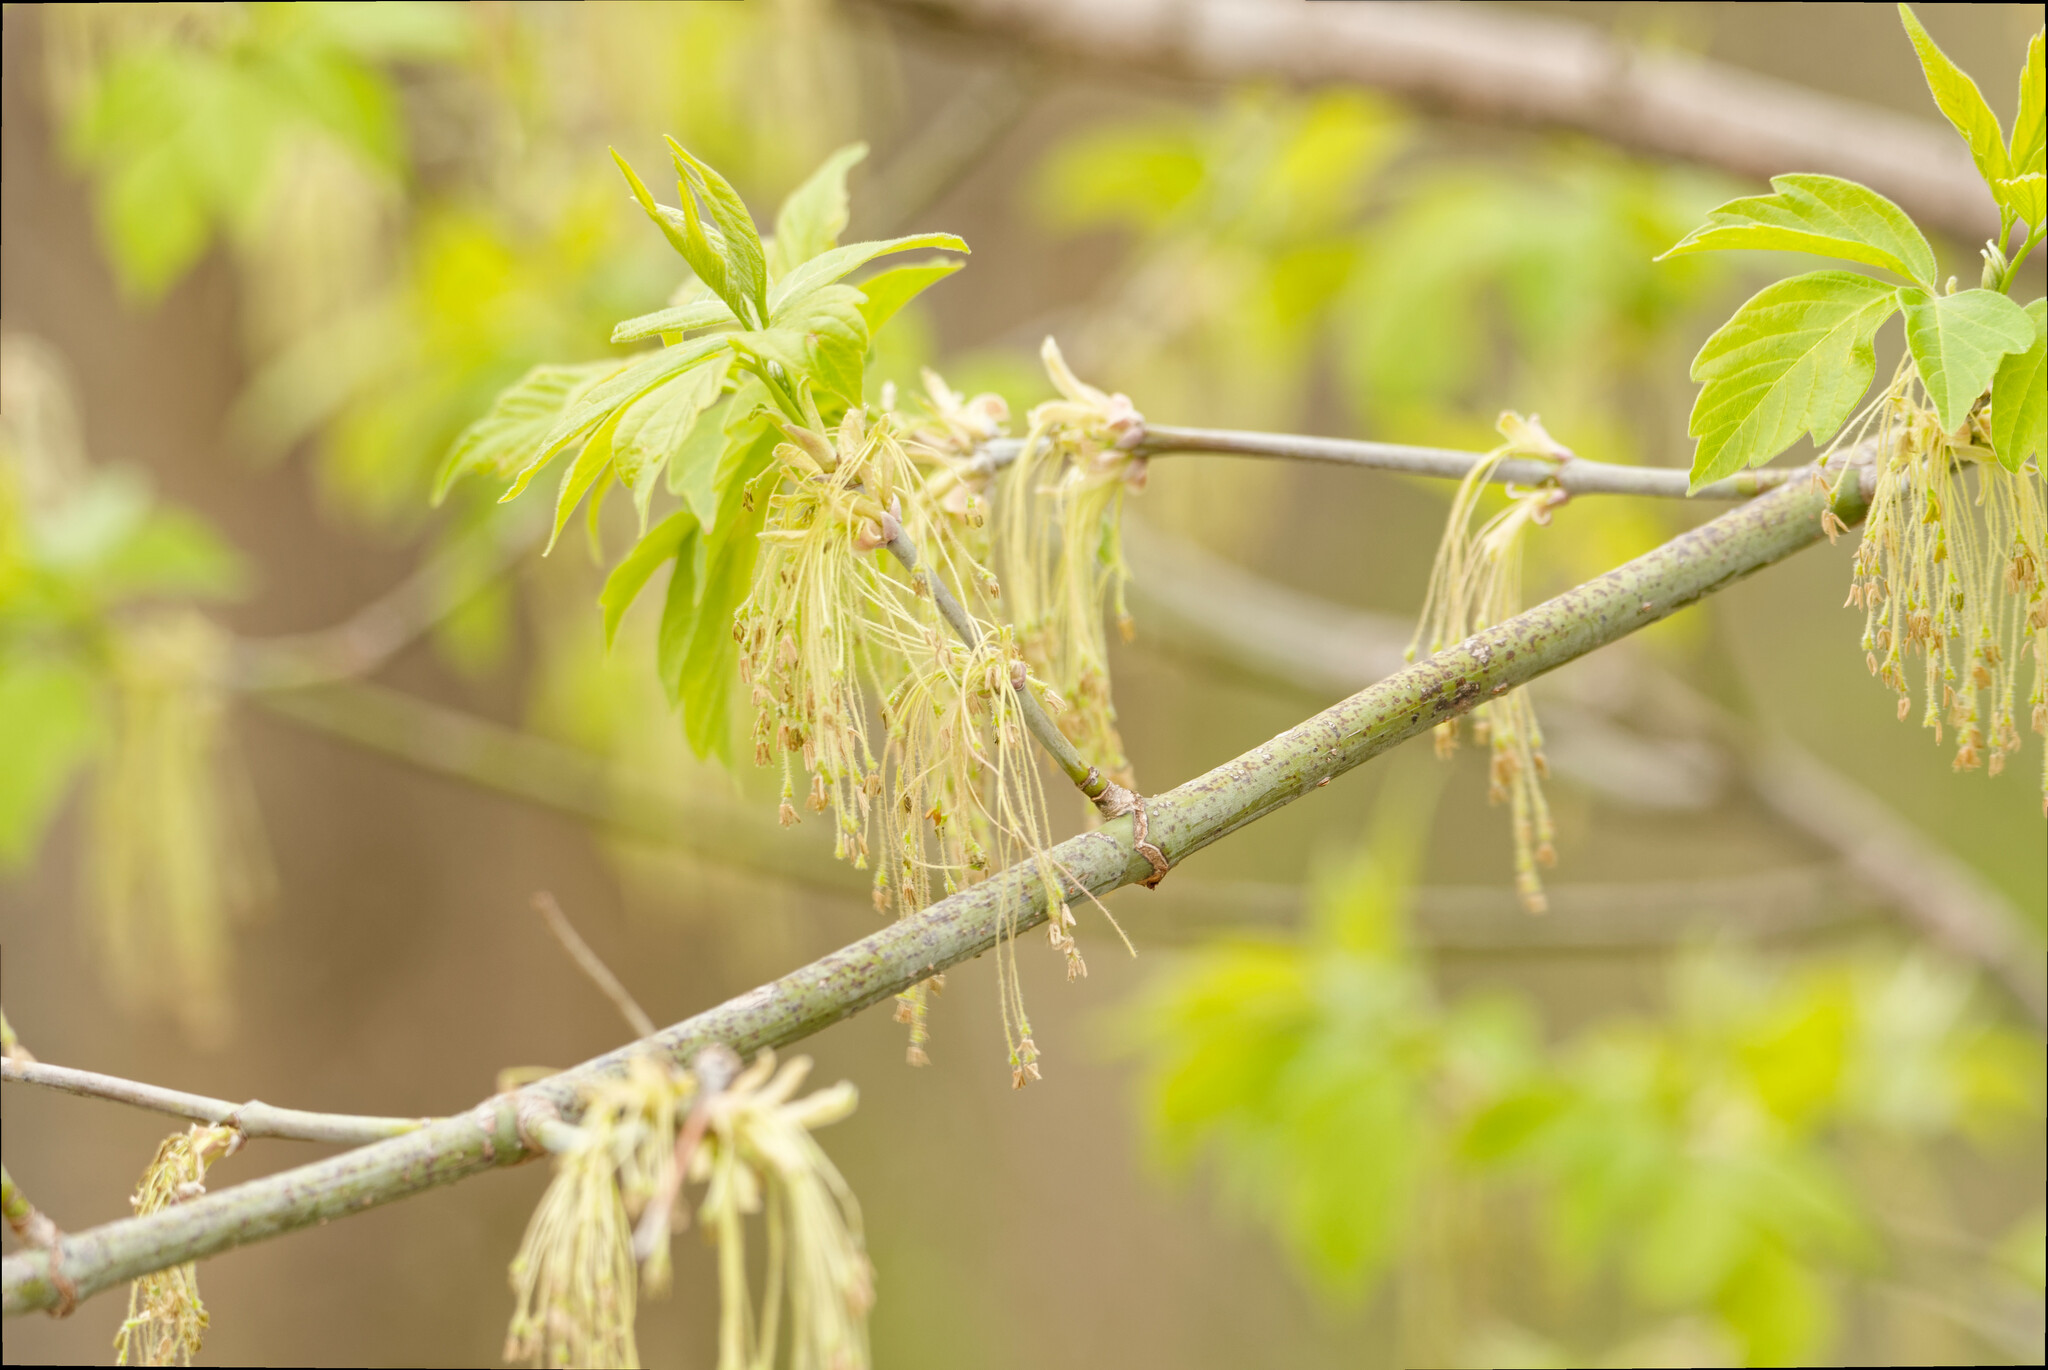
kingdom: Plantae
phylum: Tracheophyta
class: Magnoliopsida
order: Sapindales
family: Sapindaceae
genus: Acer
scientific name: Acer negundo
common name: Ashleaf maple
